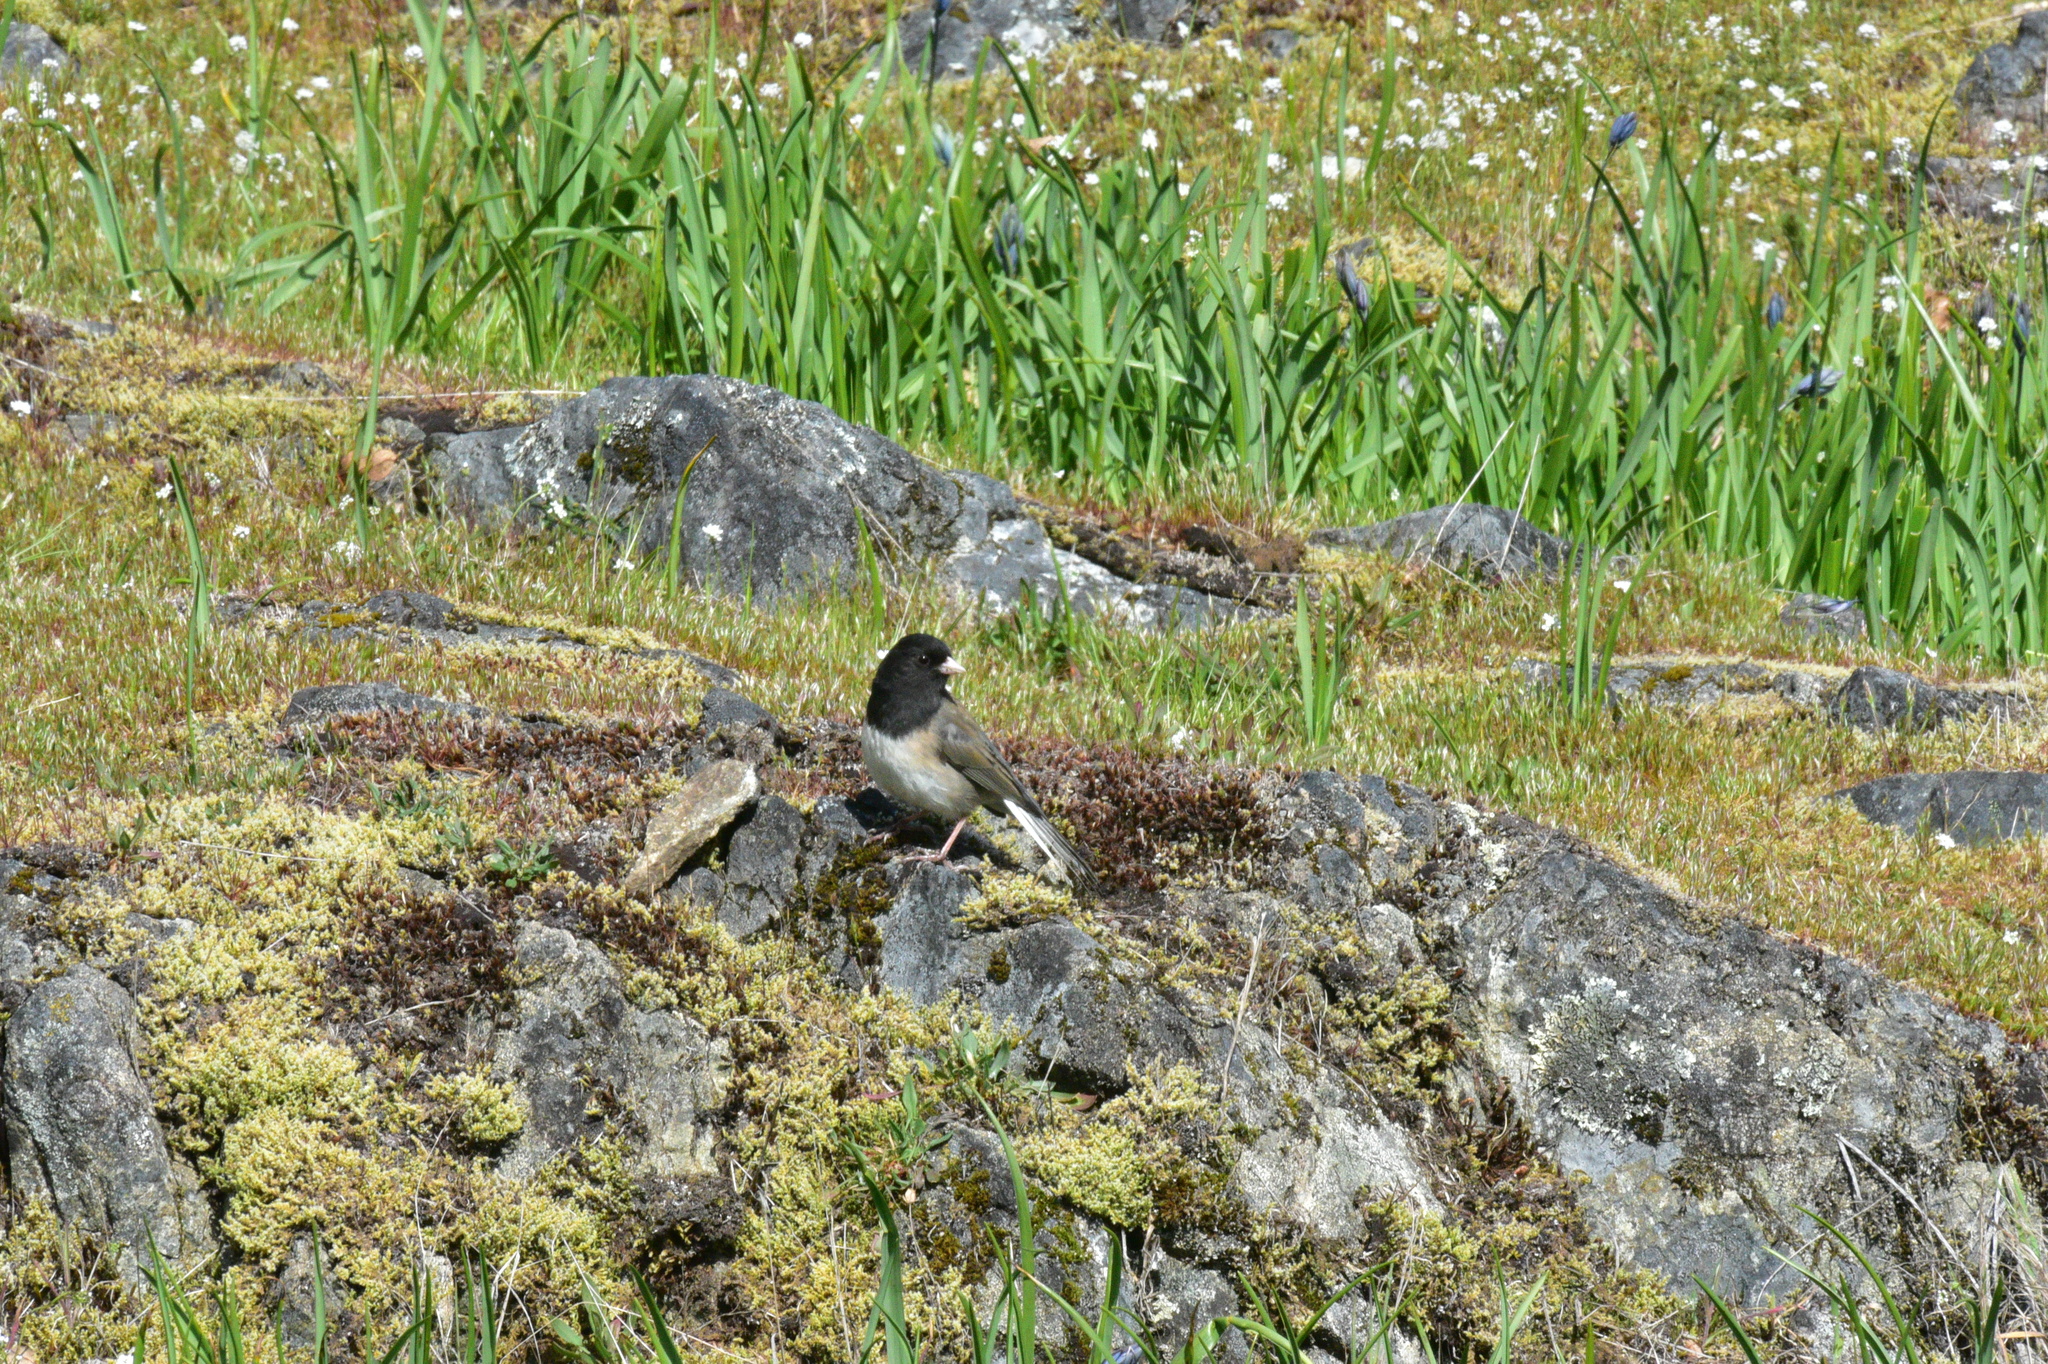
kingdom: Animalia
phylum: Chordata
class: Aves
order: Passeriformes
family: Passerellidae
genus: Junco
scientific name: Junco hyemalis
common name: Dark-eyed junco
